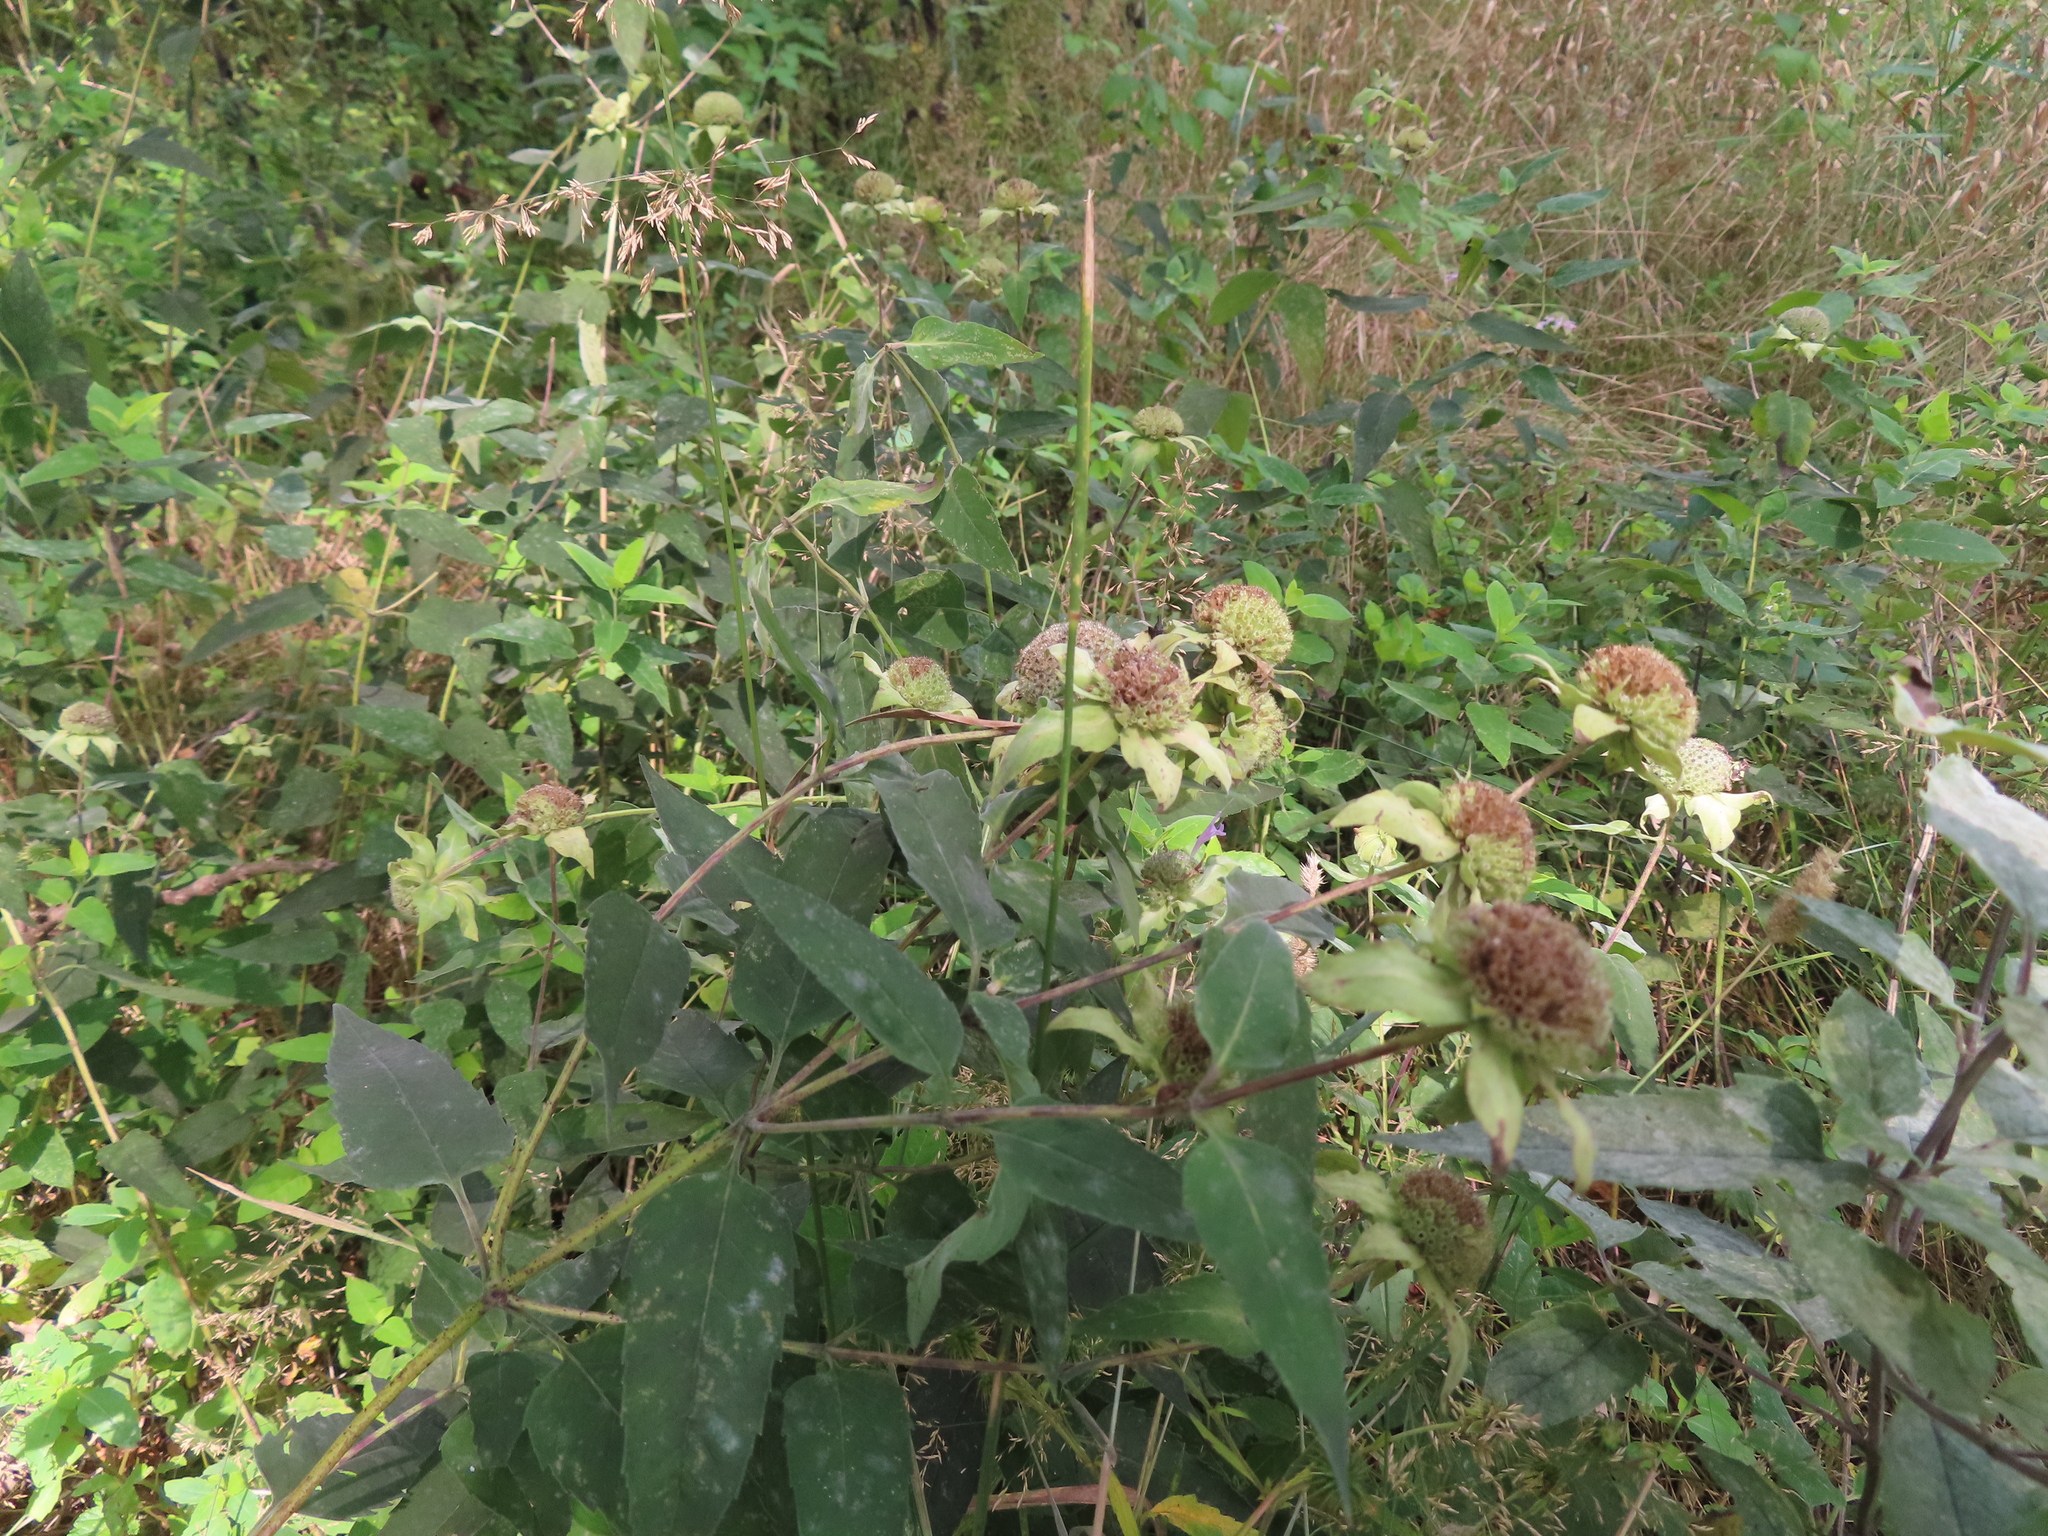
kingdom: Plantae
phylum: Tracheophyta
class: Magnoliopsida
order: Lamiales
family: Lamiaceae
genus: Monarda
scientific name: Monarda fistulosa
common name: Purple beebalm
